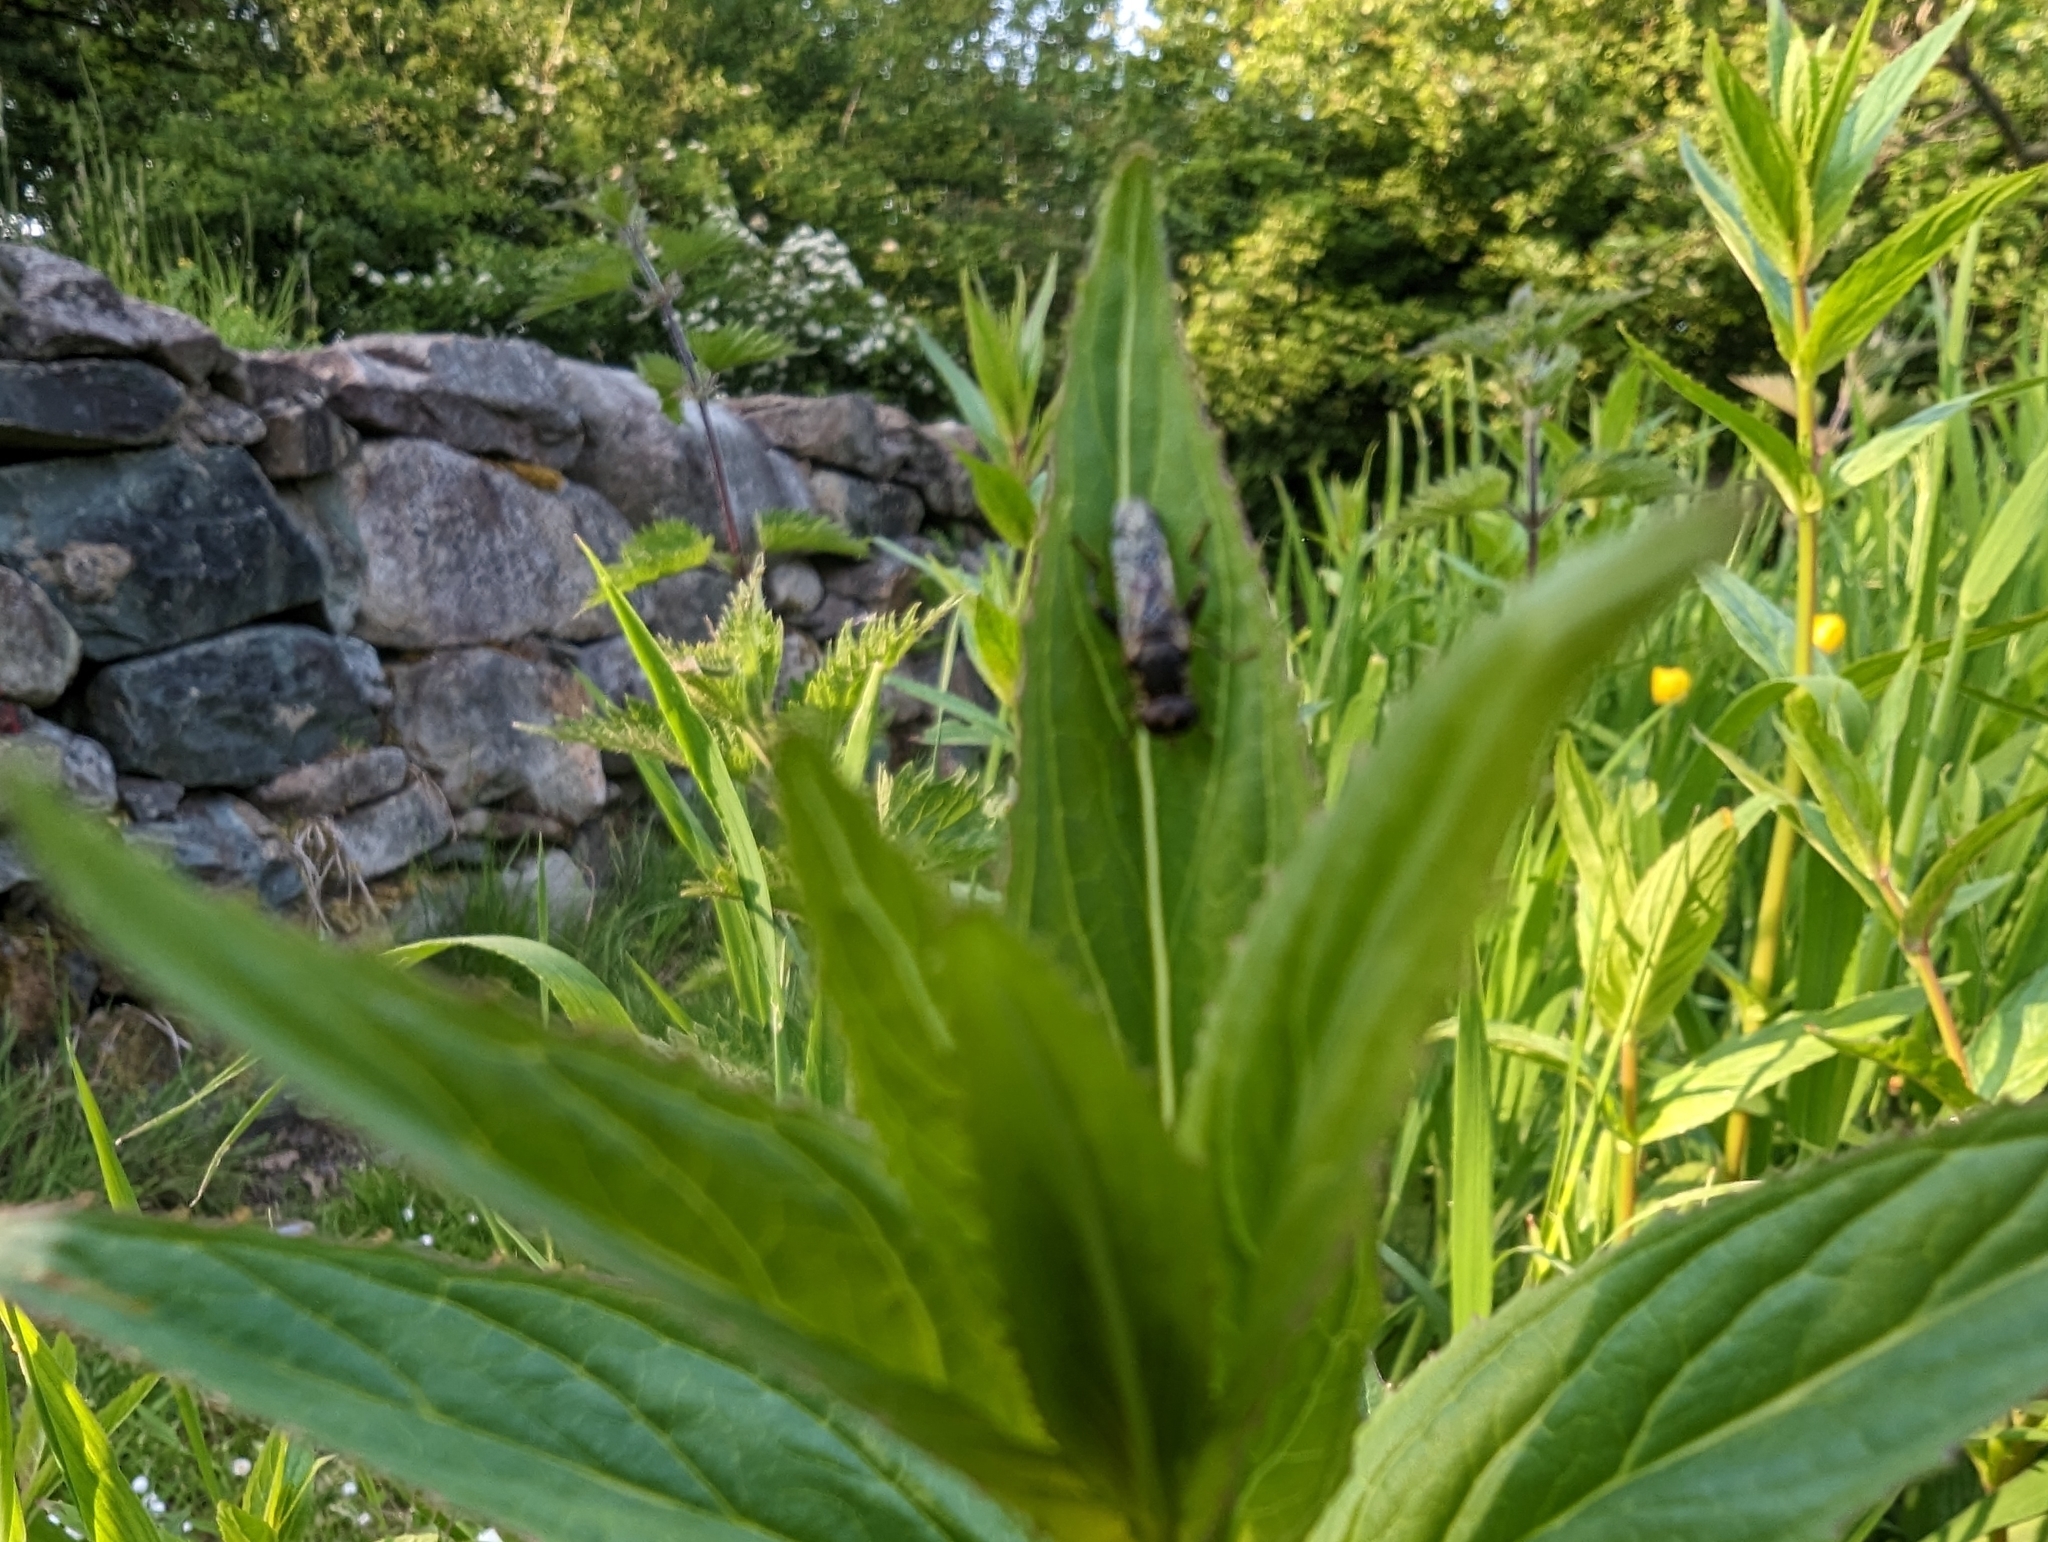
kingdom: Animalia
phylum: Arthropoda
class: Insecta
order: Diptera
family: Syrphidae
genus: Syritta
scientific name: Syritta pipiens
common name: Hover fly
